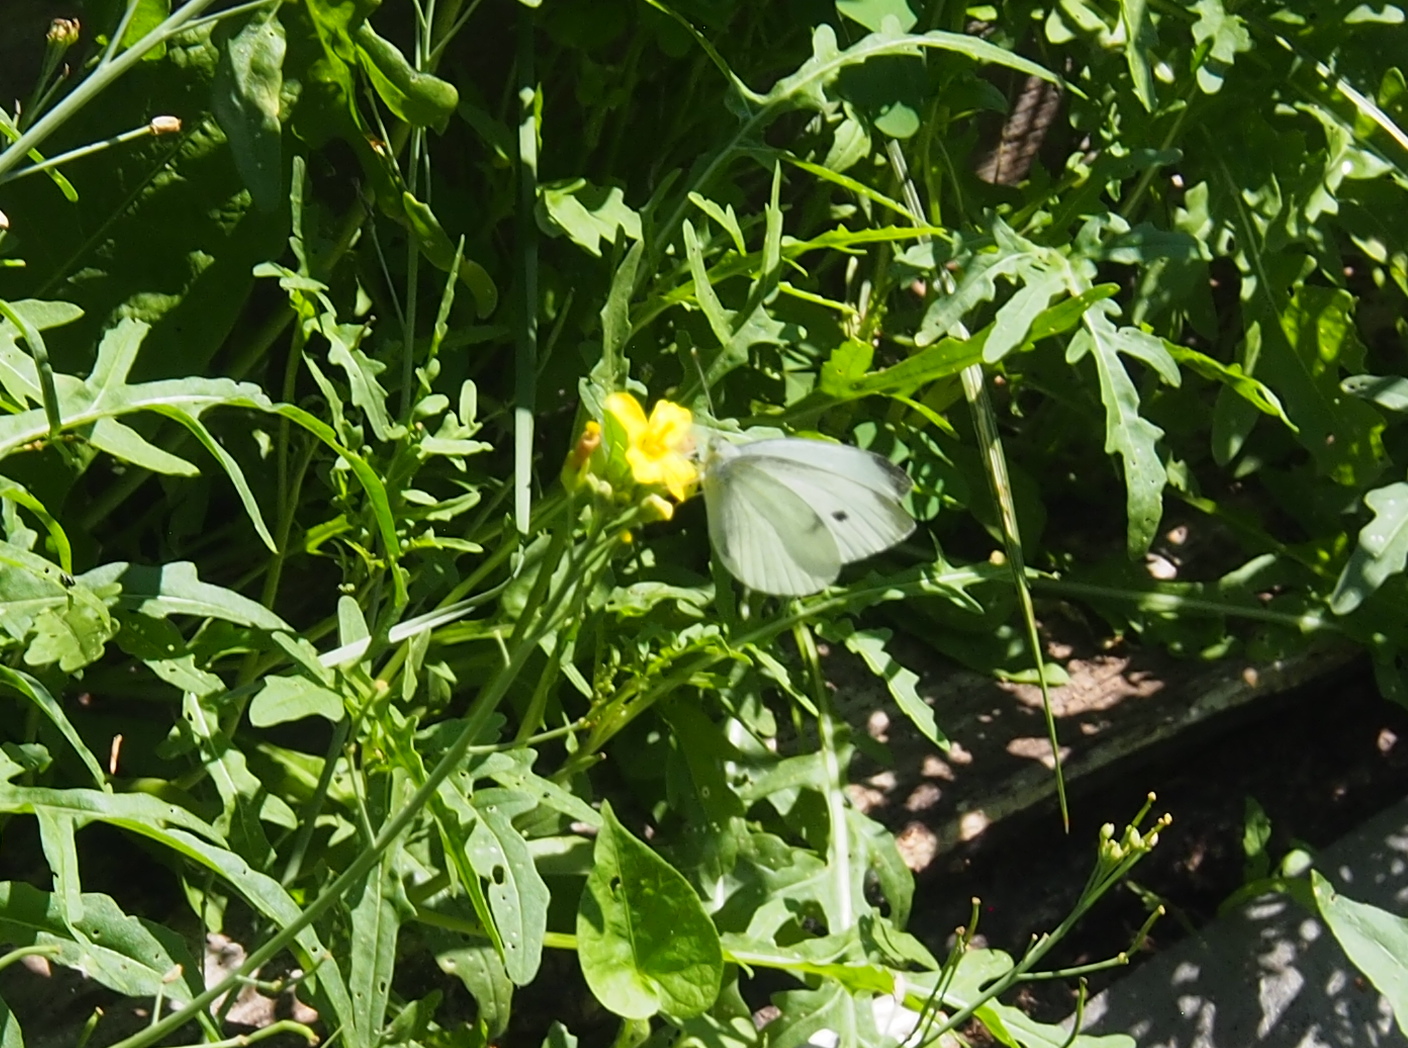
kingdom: Animalia
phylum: Arthropoda
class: Insecta
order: Lepidoptera
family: Pieridae
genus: Pieris
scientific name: Pieris rapae
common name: Small white
